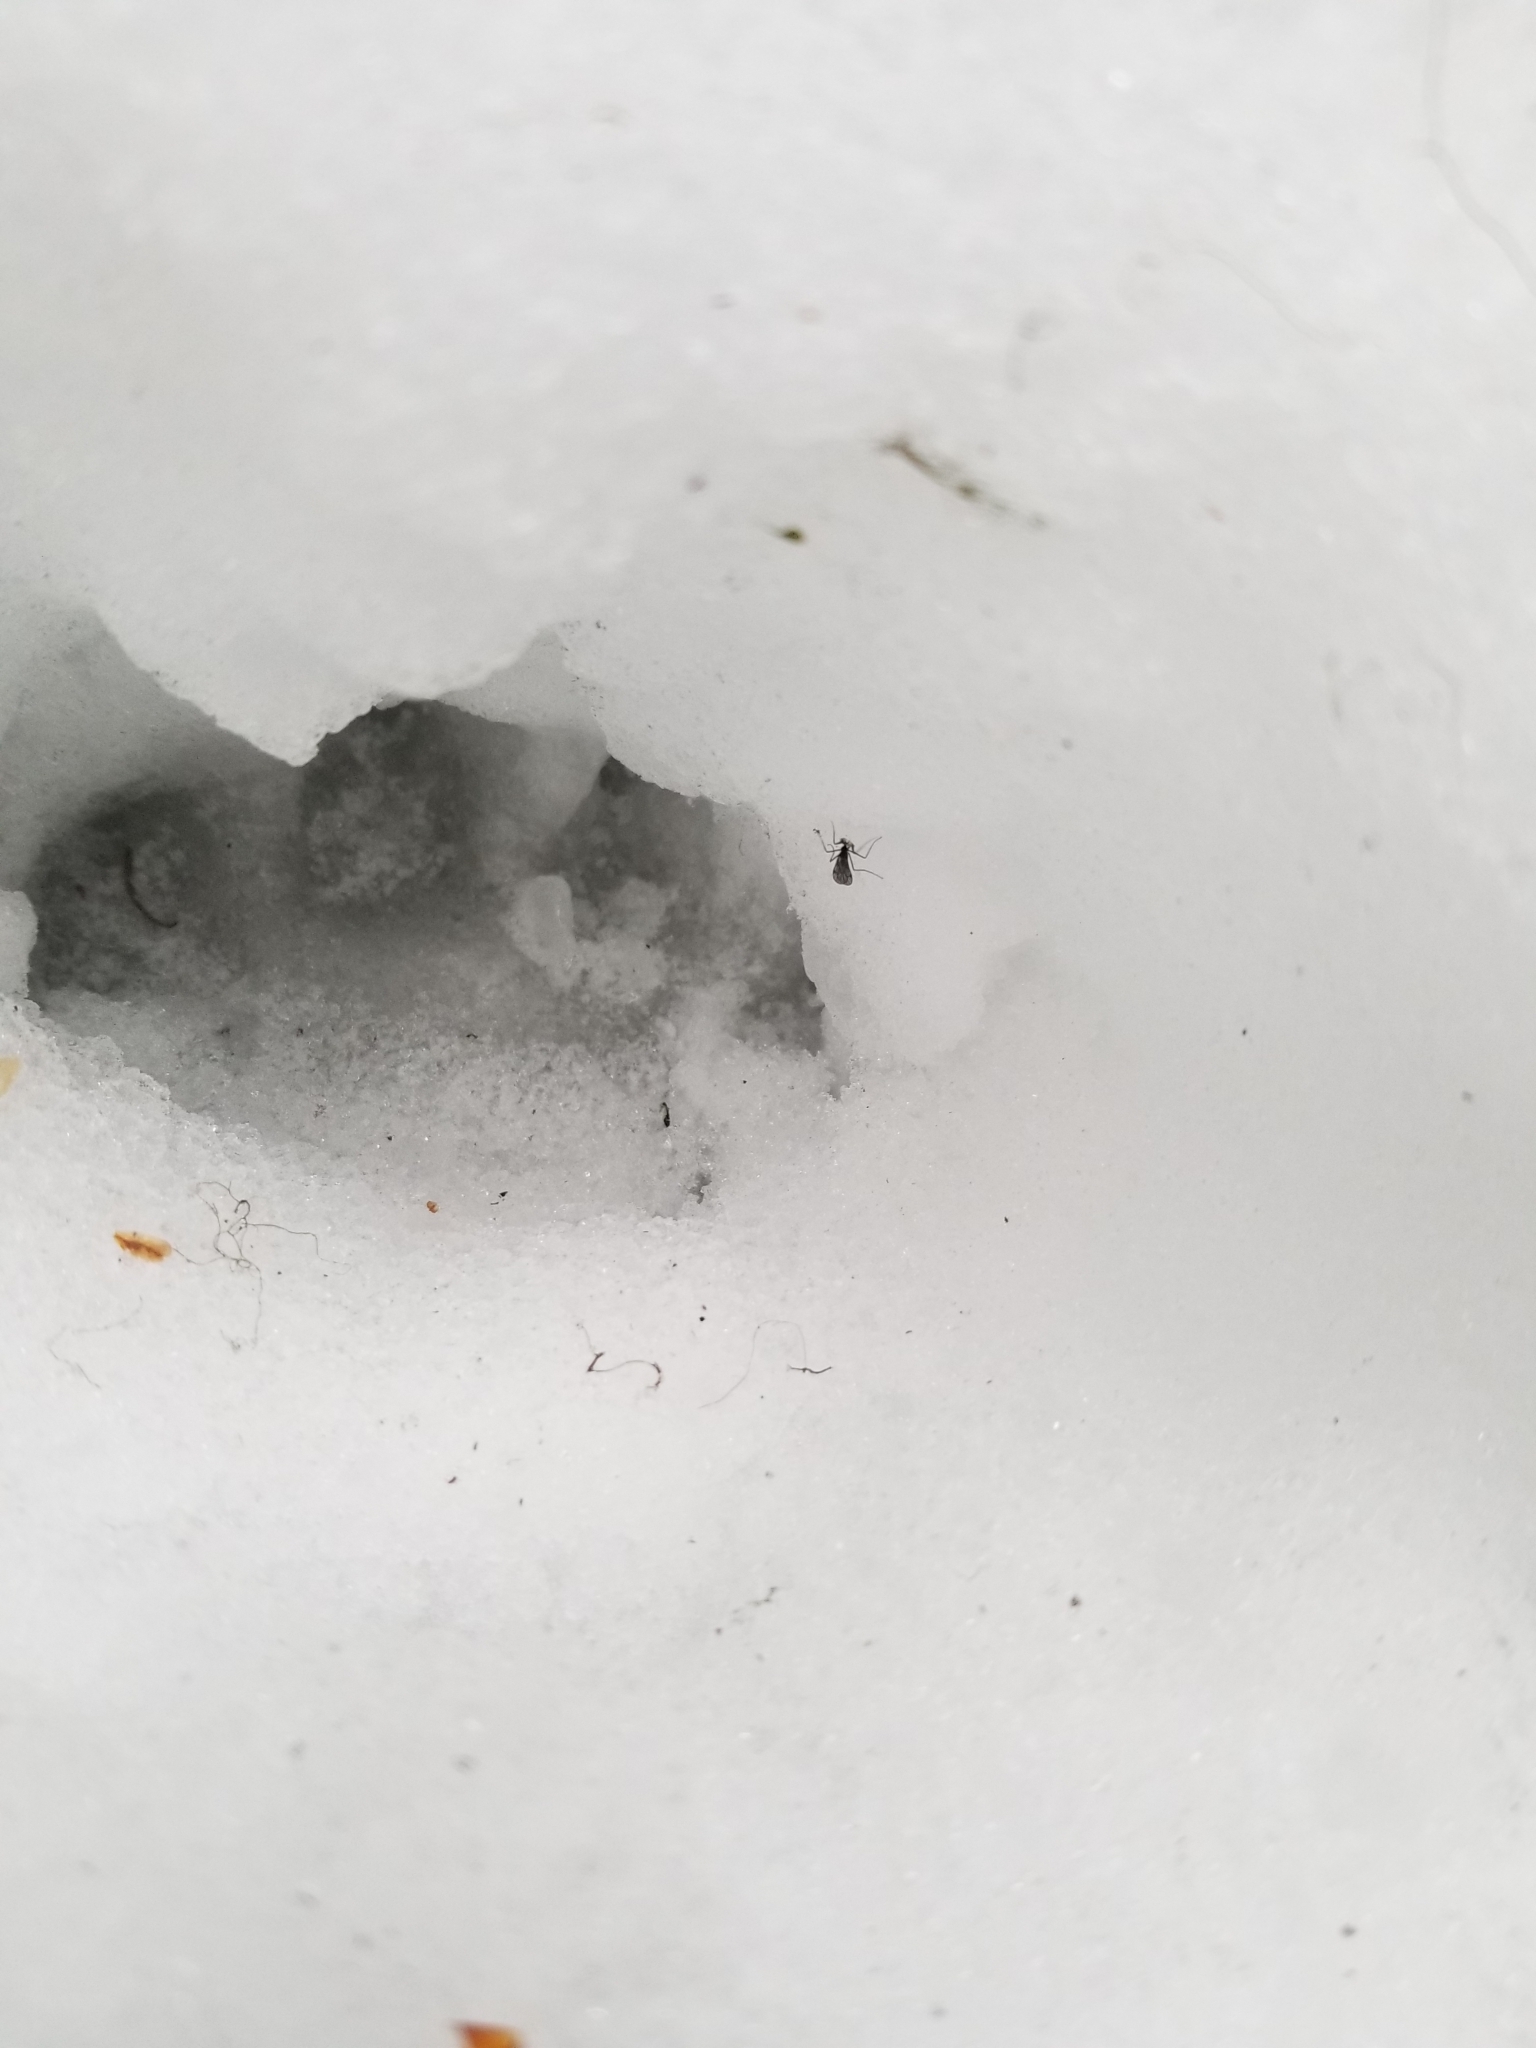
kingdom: Animalia
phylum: Arthropoda
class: Insecta
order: Diptera
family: Empididae
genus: Clinocera
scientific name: Clinocera stigma
